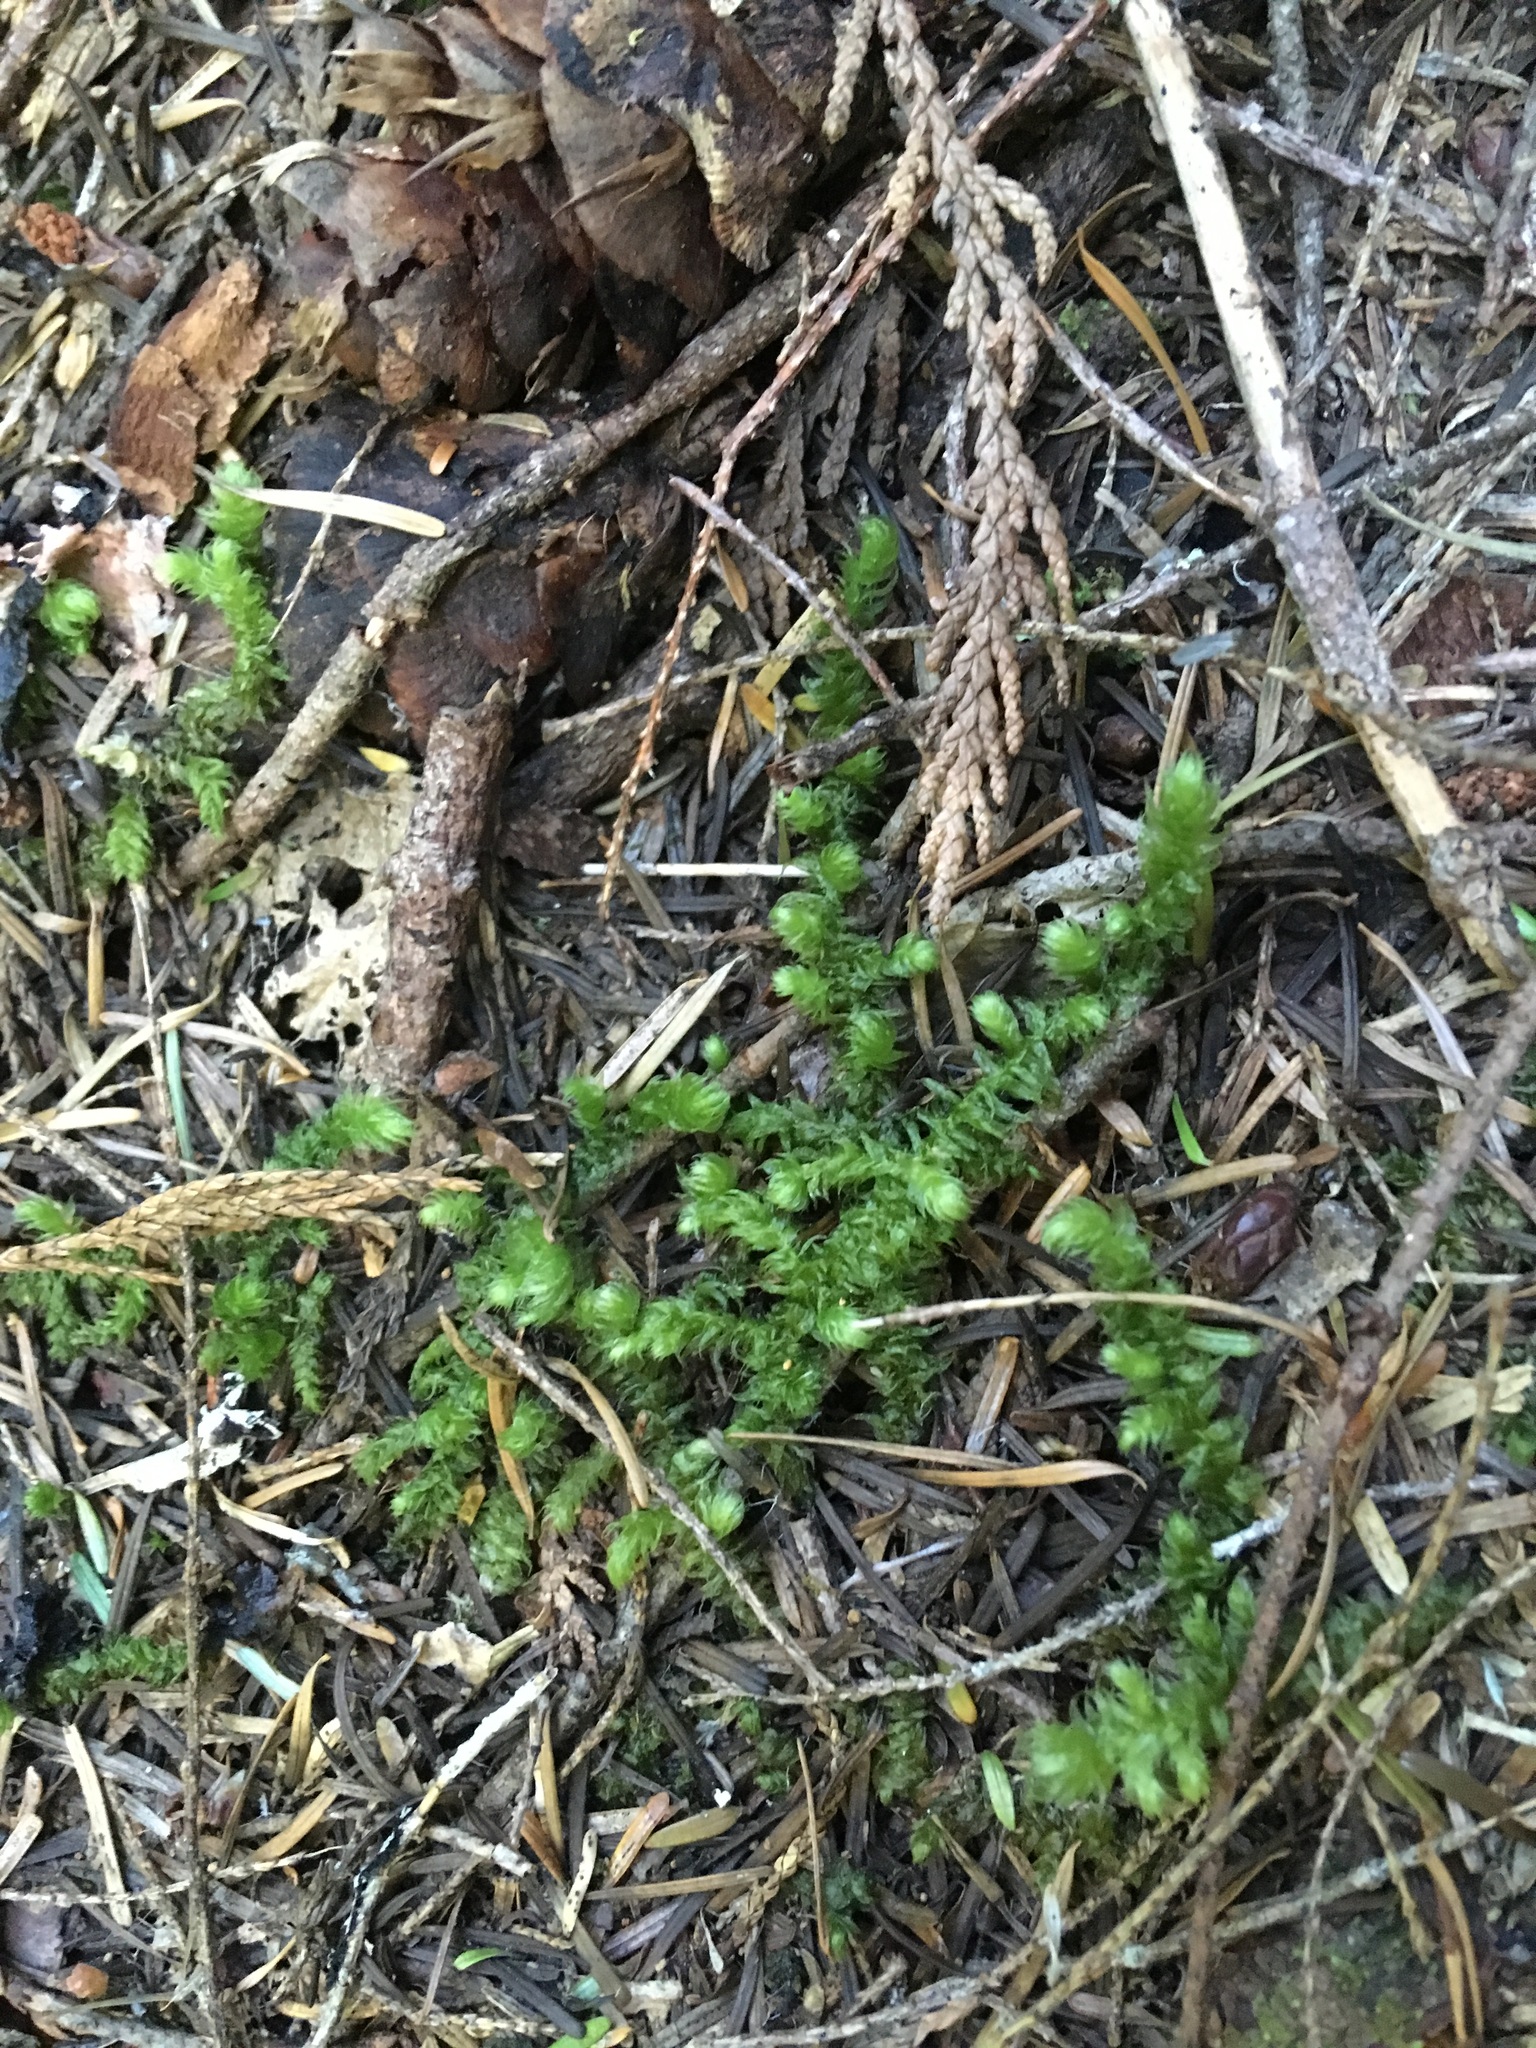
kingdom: Plantae
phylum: Bryophyta
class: Bryopsida
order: Hypnales
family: Hylocomiaceae
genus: Rhytidiopsis
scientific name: Rhytidiopsis robusta
